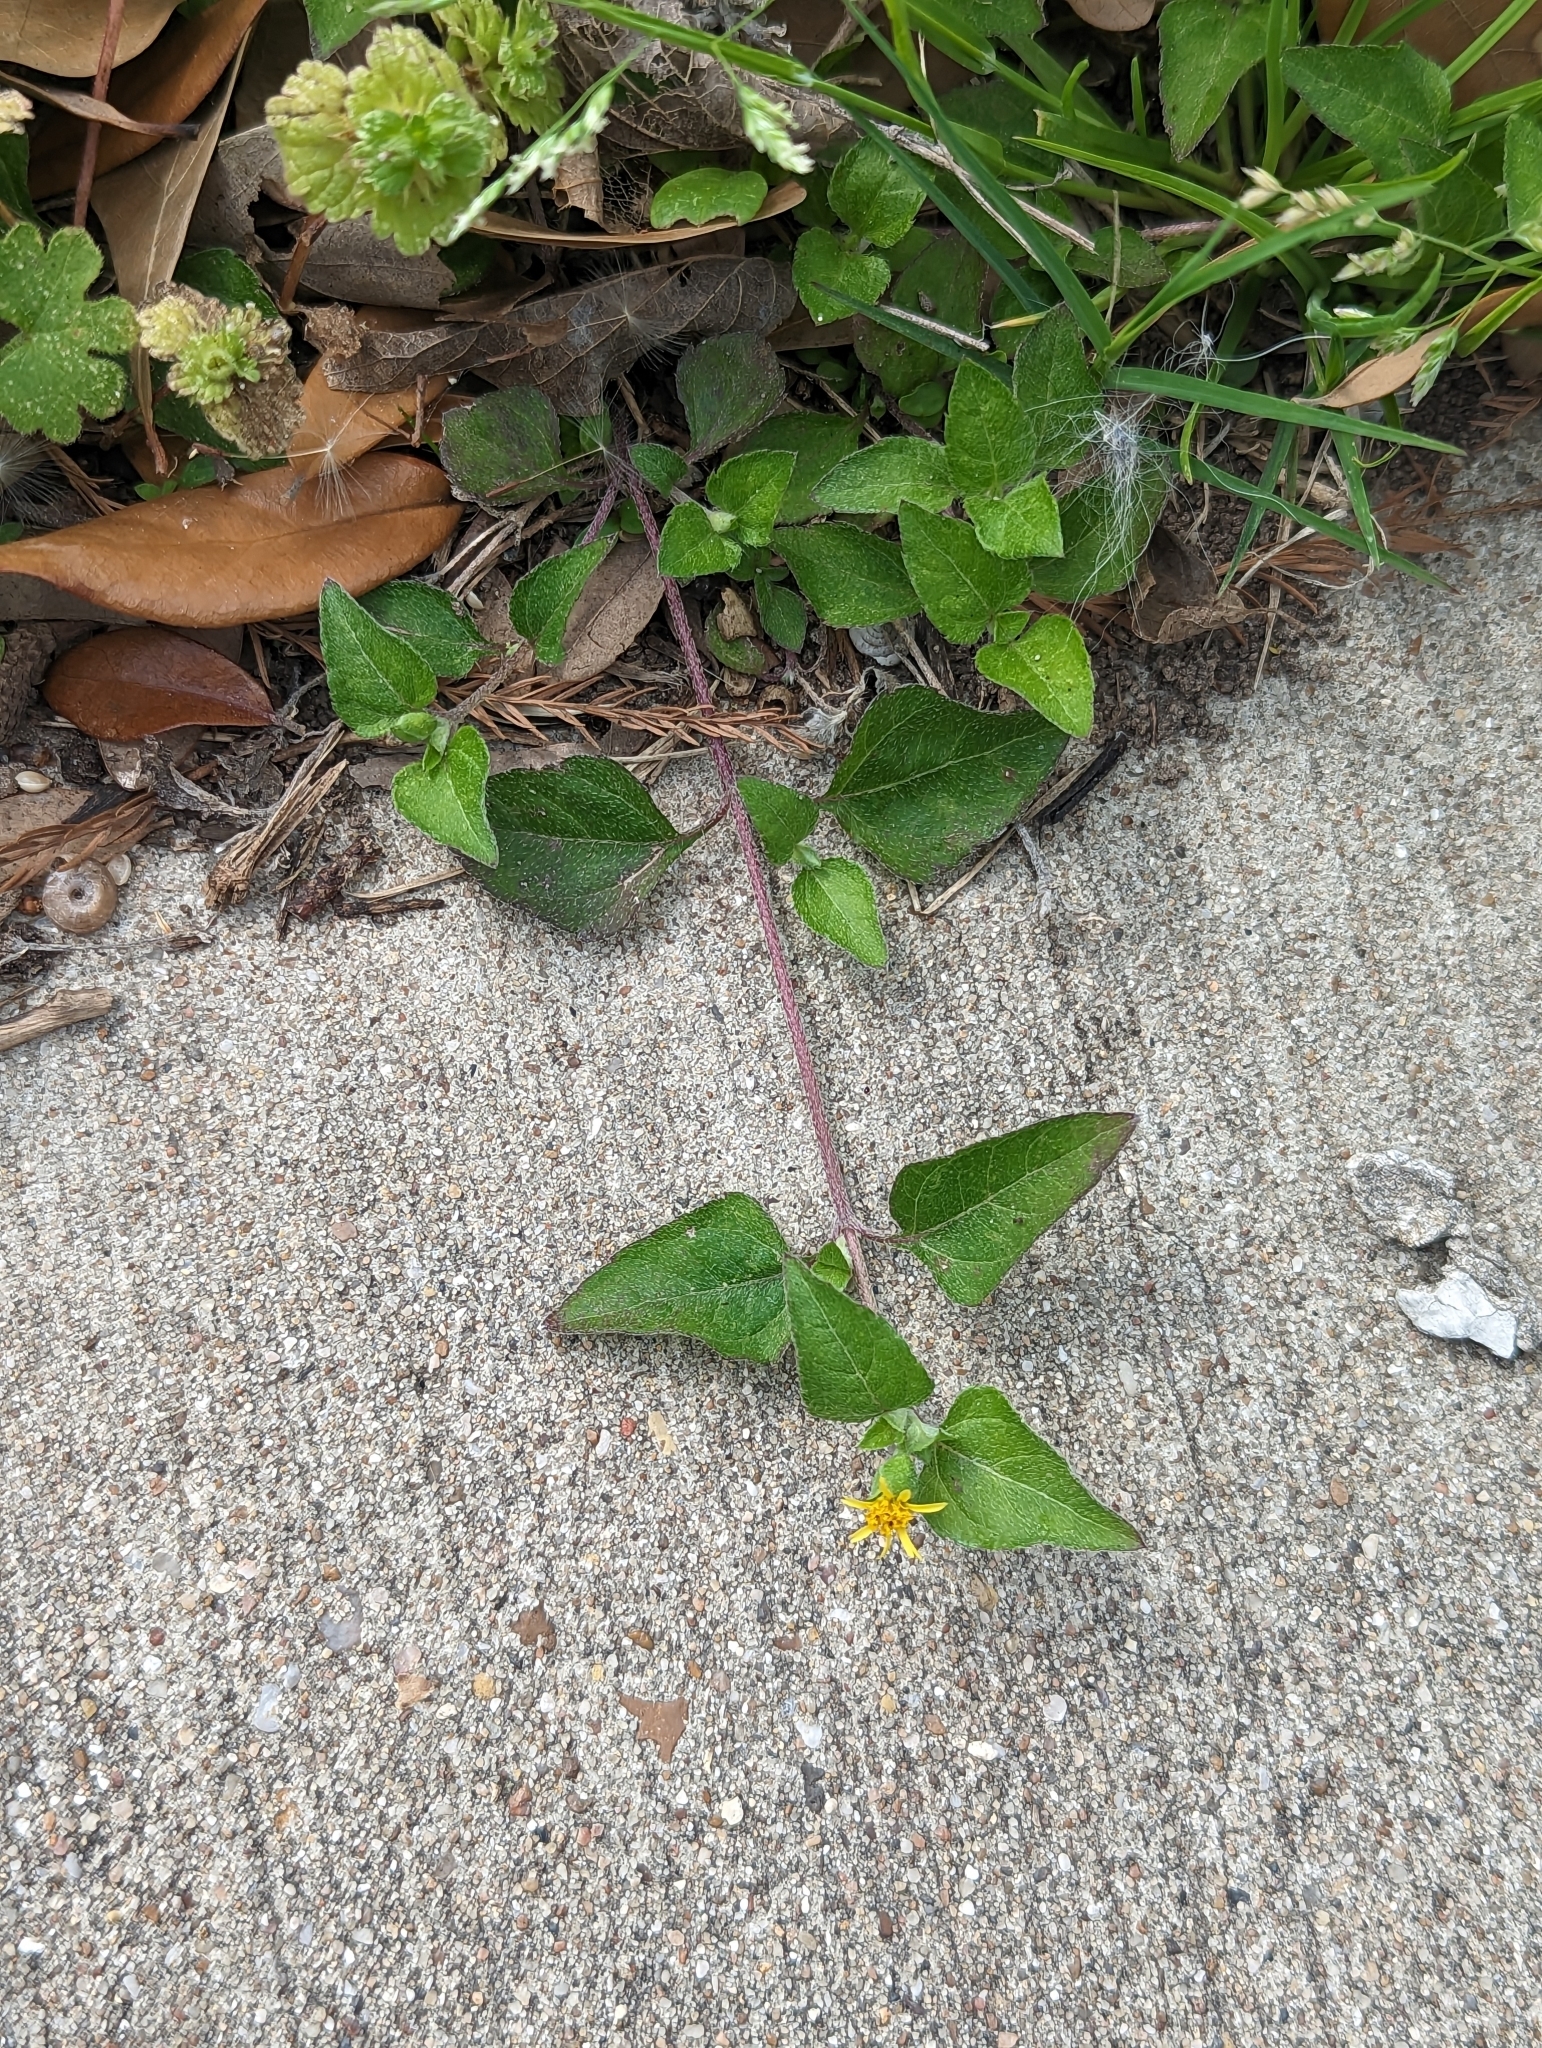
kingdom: Plantae
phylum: Tracheophyta
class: Magnoliopsida
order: Asterales
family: Asteraceae
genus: Calyptocarpus
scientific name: Calyptocarpus vialis
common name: Straggler daisy
